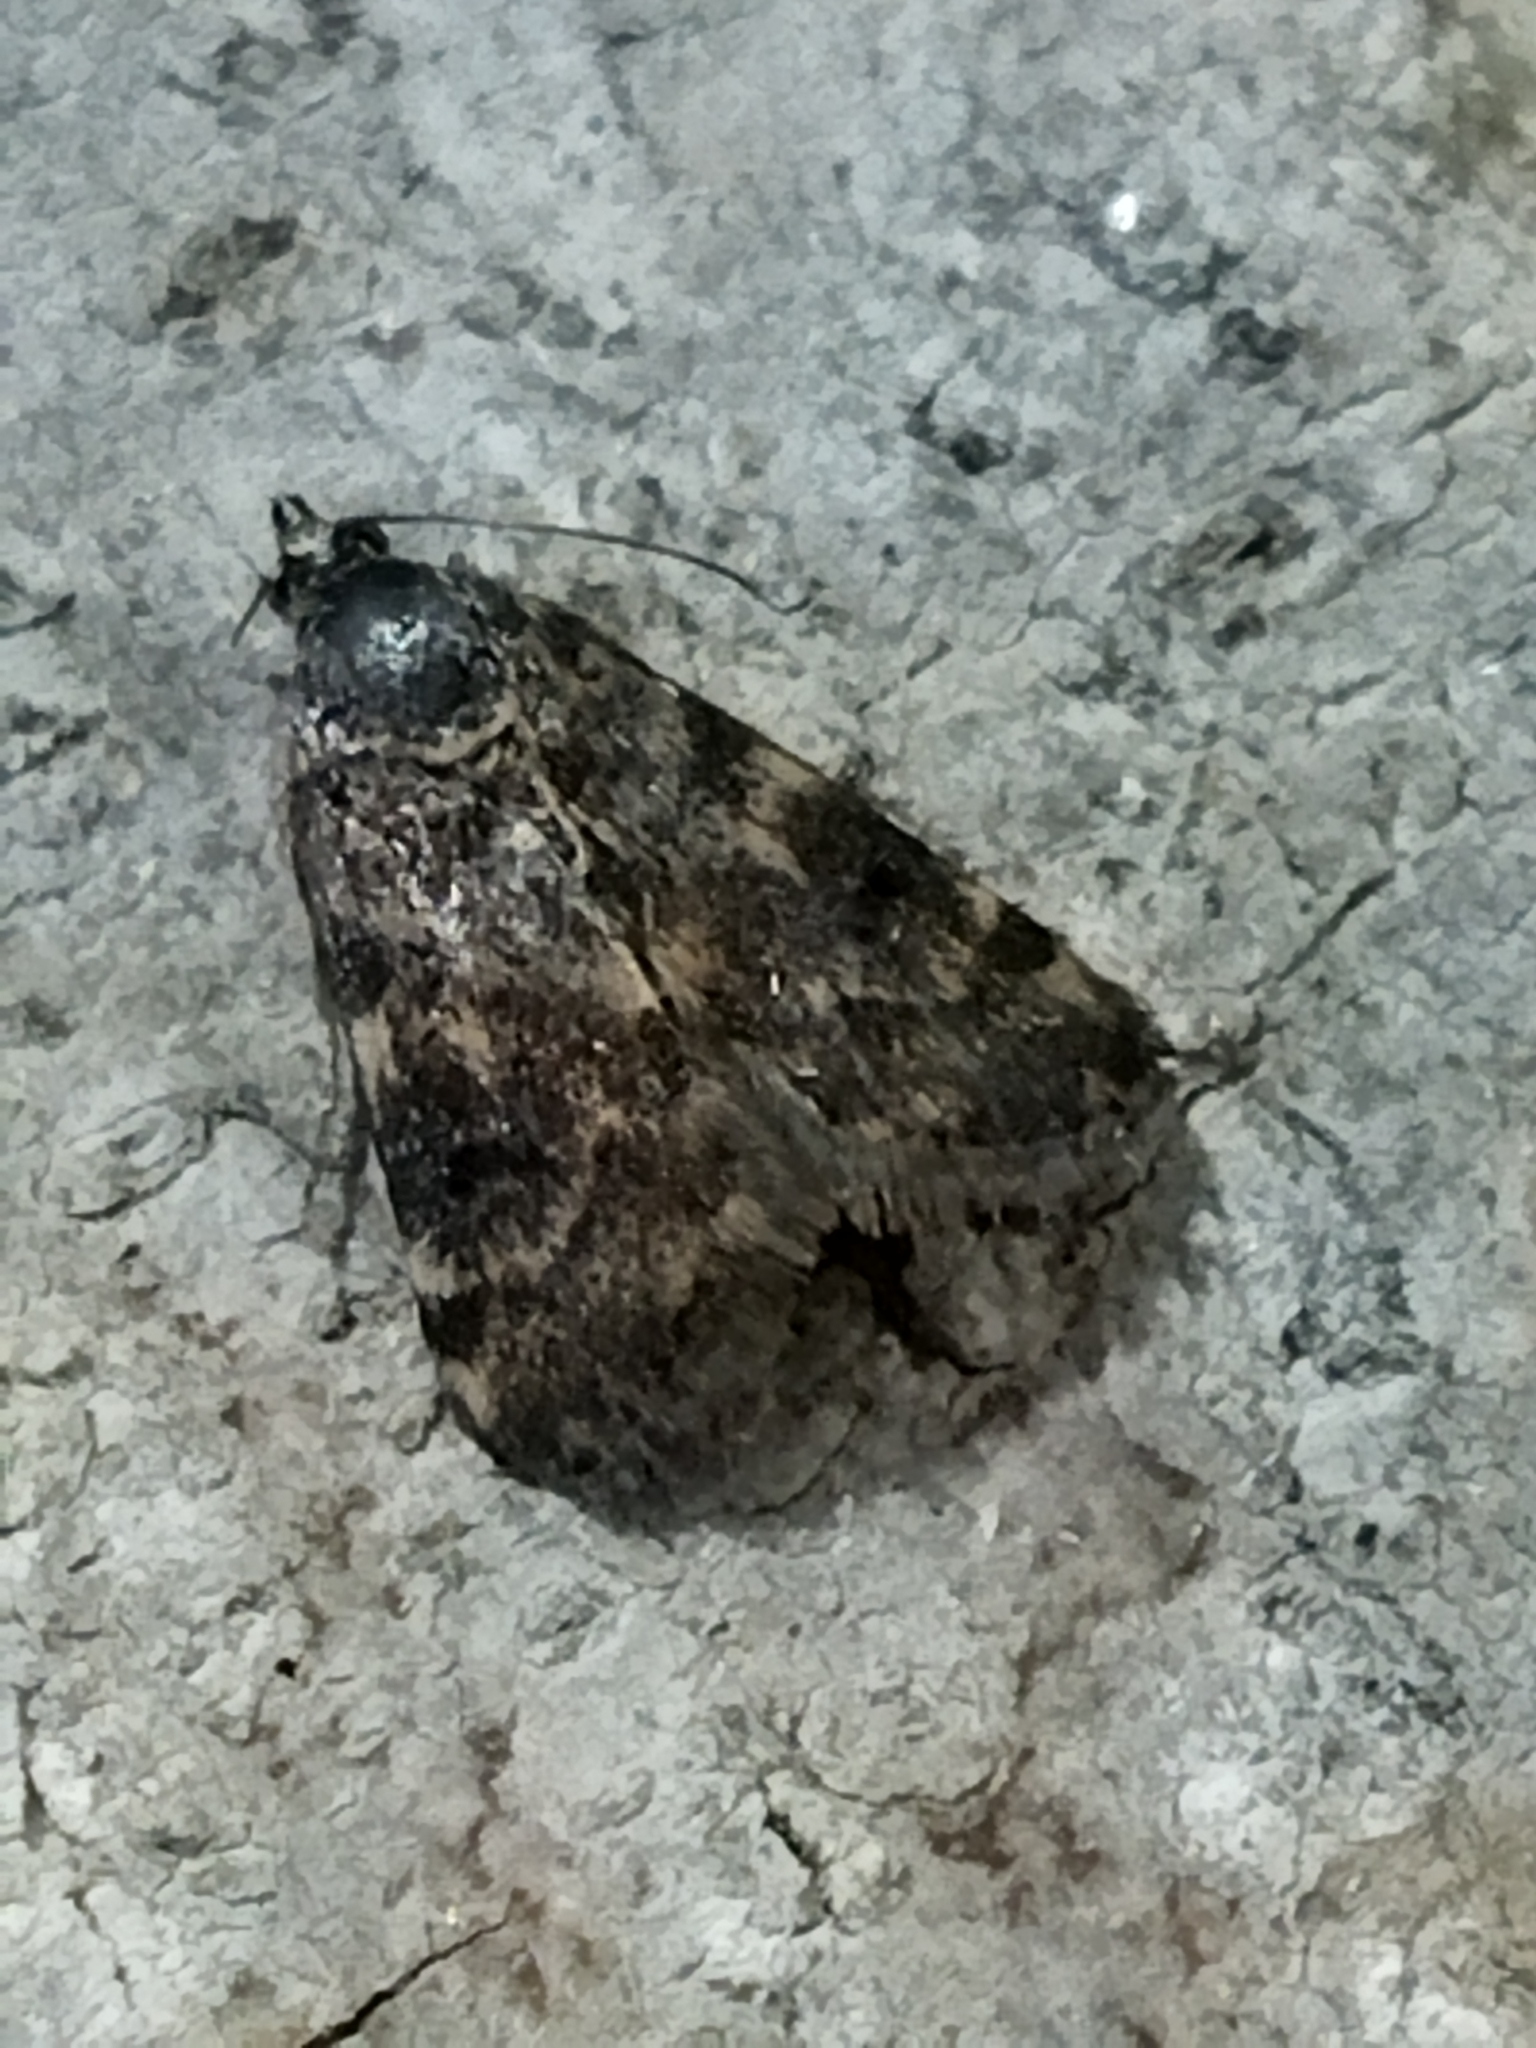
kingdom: Animalia
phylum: Arthropoda
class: Insecta
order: Lepidoptera
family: Crambidae
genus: Noctuelia
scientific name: Noctuelia Aporodes floralis
